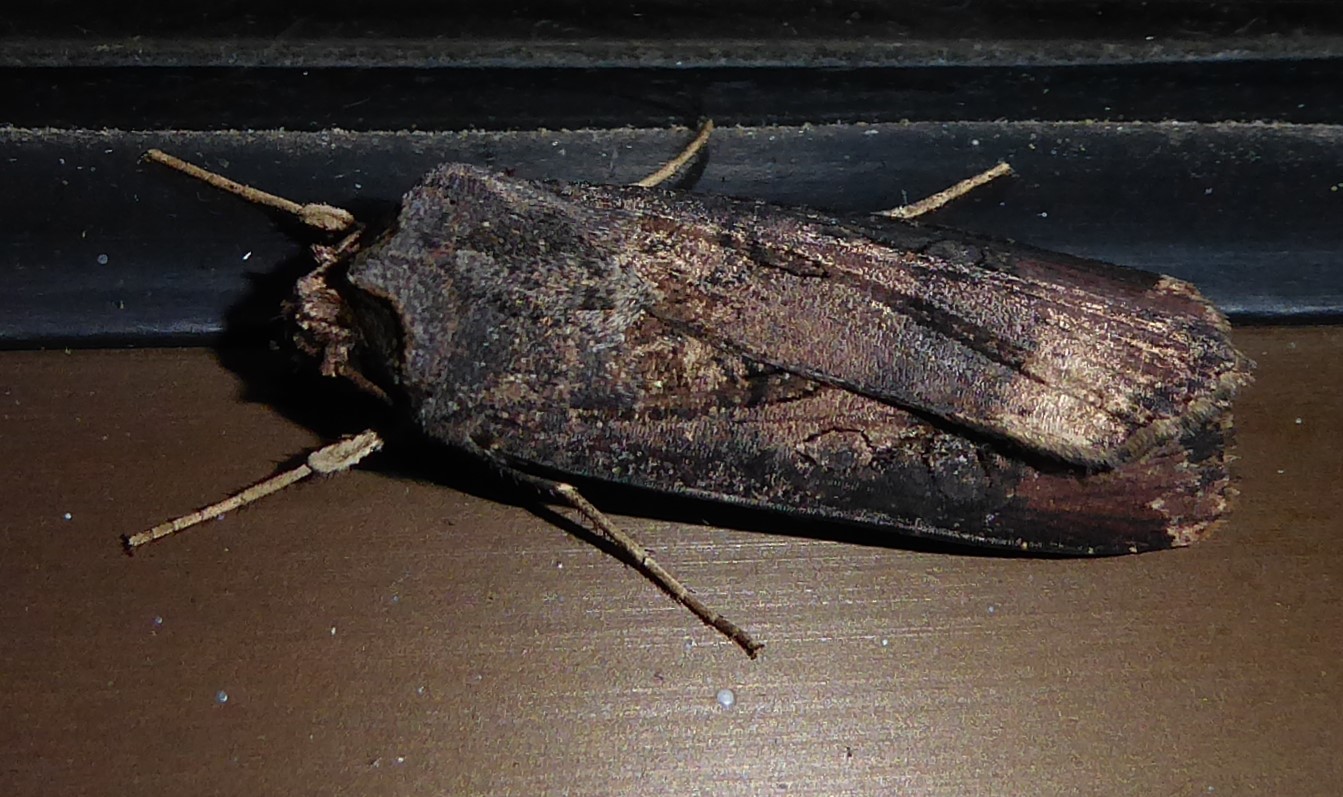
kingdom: Animalia
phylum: Arthropoda
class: Insecta
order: Lepidoptera
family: Noctuidae
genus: Agrotis
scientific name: Agrotis ipsilon
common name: Dark sword-grass
